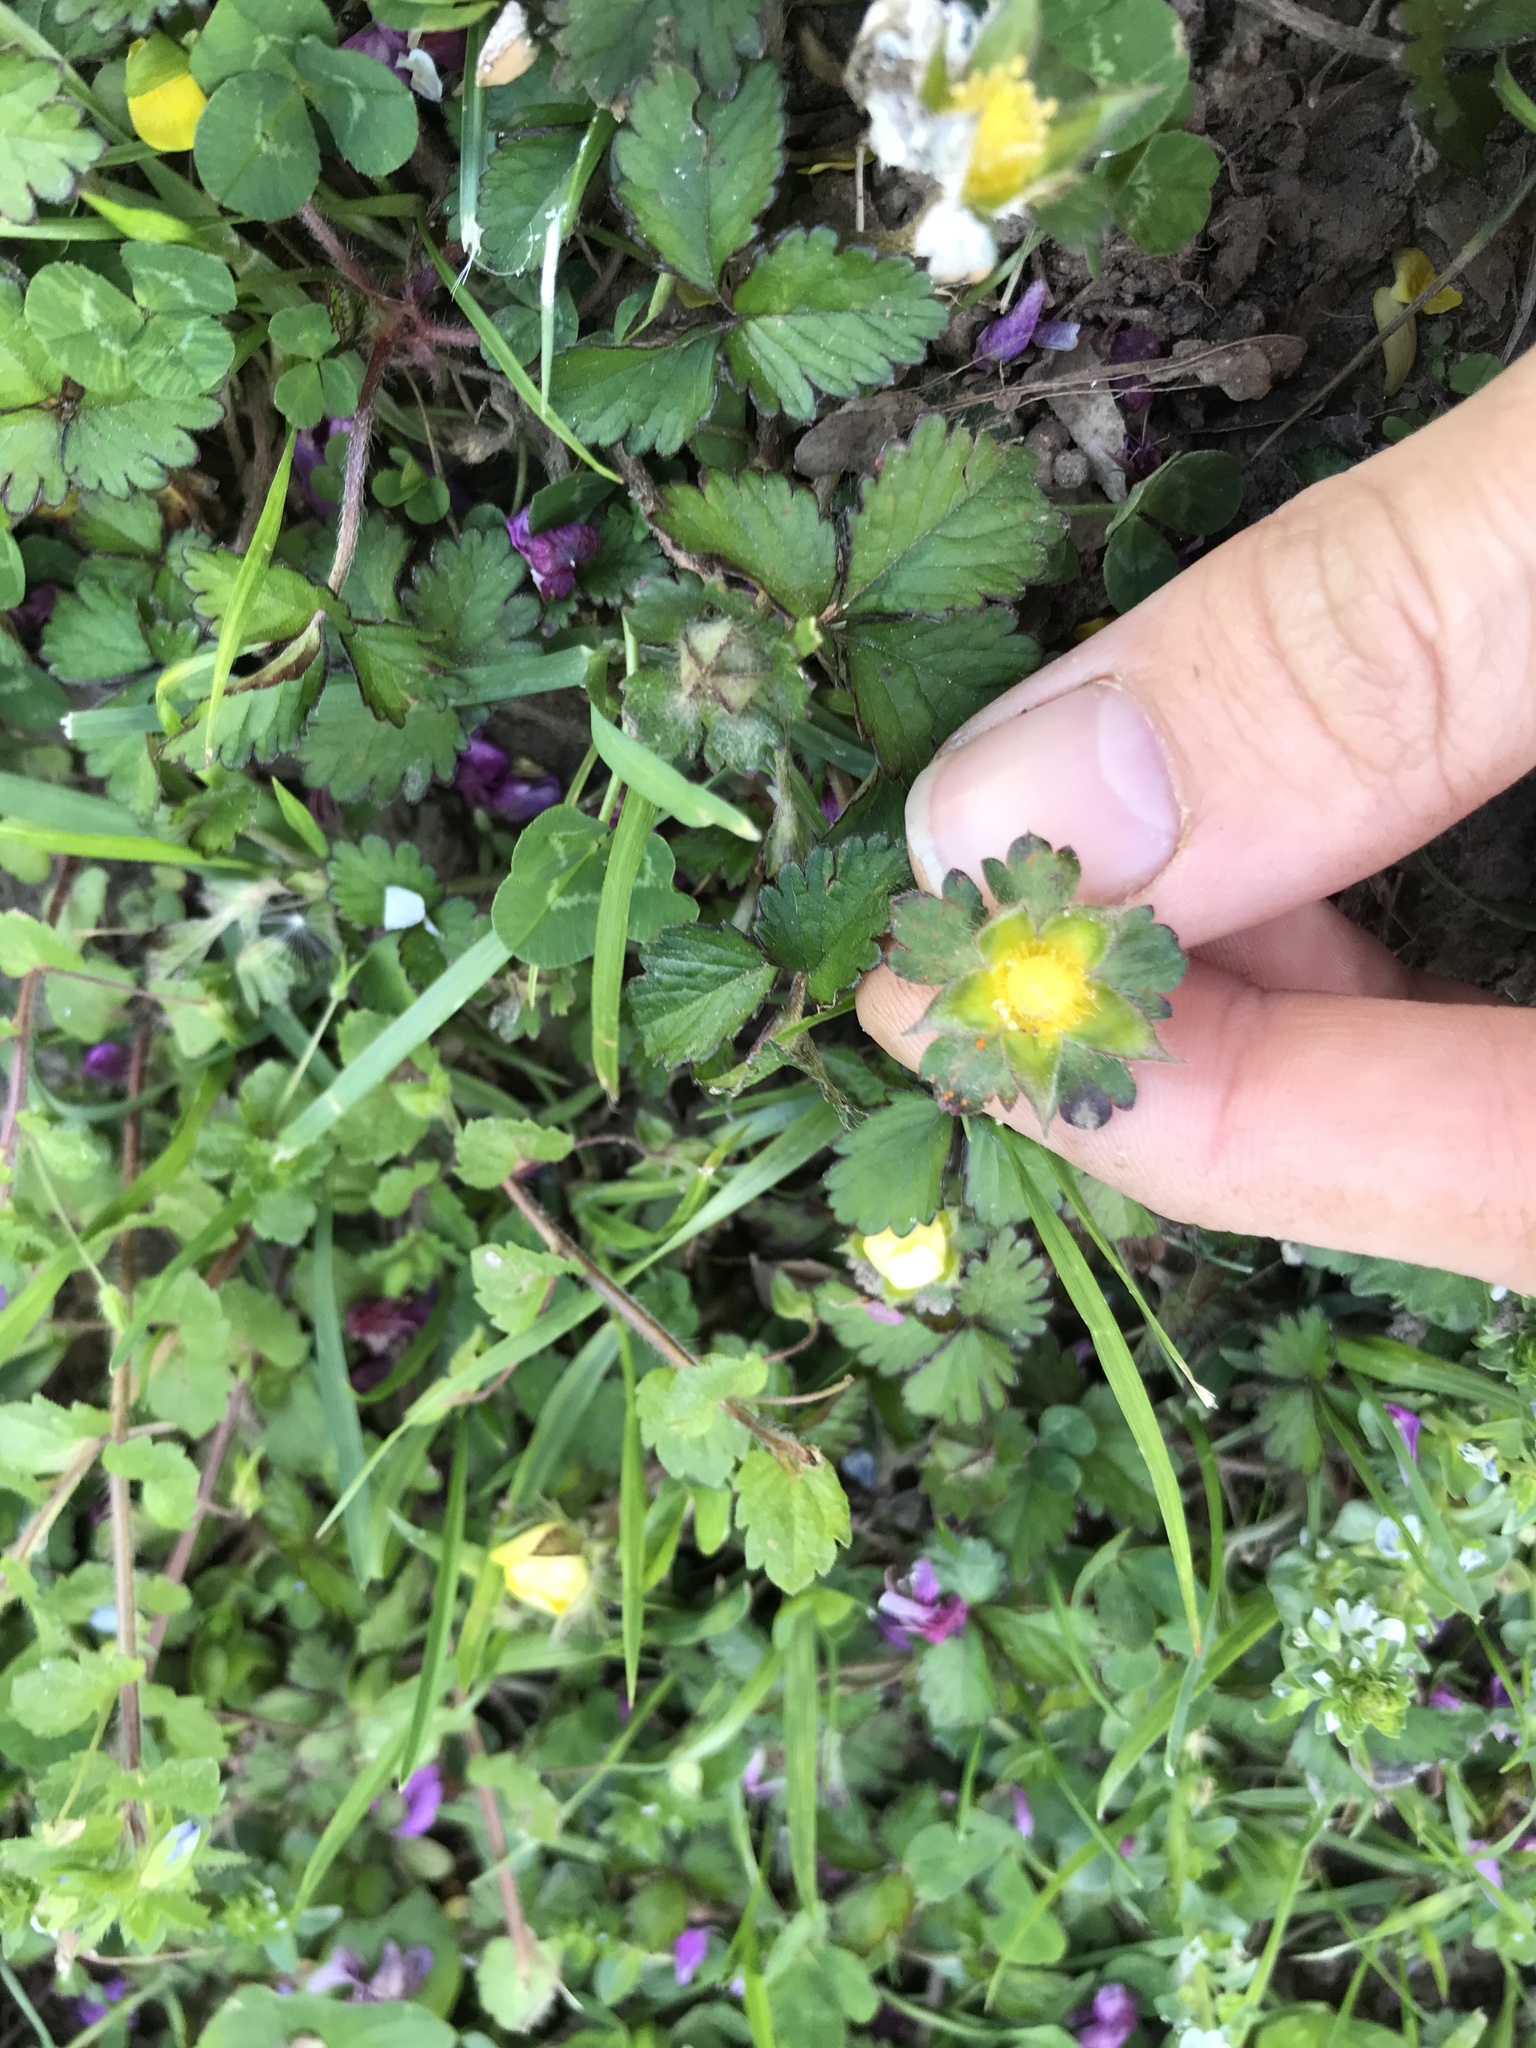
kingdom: Plantae
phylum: Tracheophyta
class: Magnoliopsida
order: Rosales
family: Rosaceae
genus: Potentilla
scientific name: Potentilla indica
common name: Yellow-flowered strawberry
